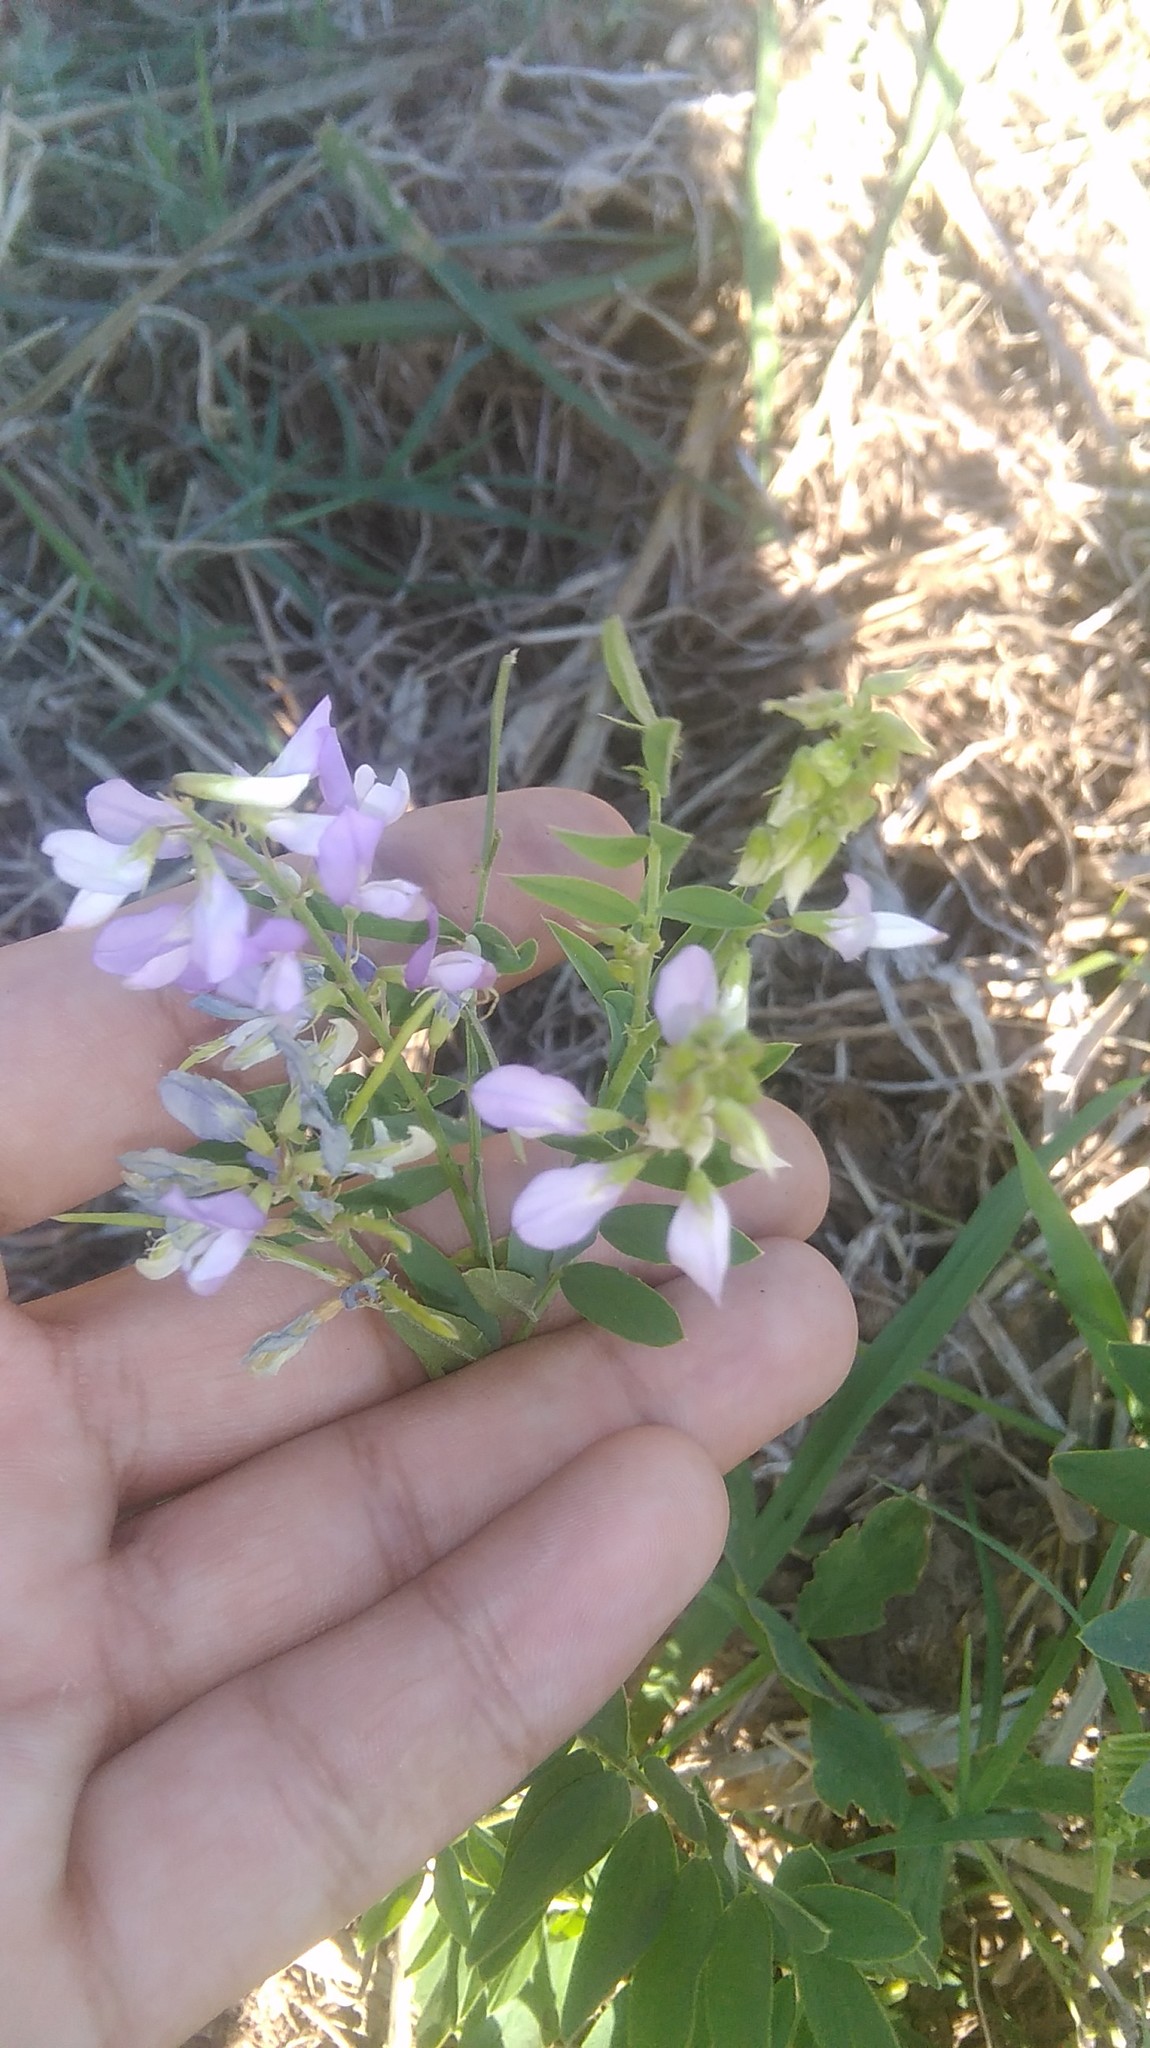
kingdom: Plantae
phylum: Tracheophyta
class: Magnoliopsida
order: Fabales
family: Fabaceae
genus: Galega
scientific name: Galega officinalis
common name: Goat's-rue
